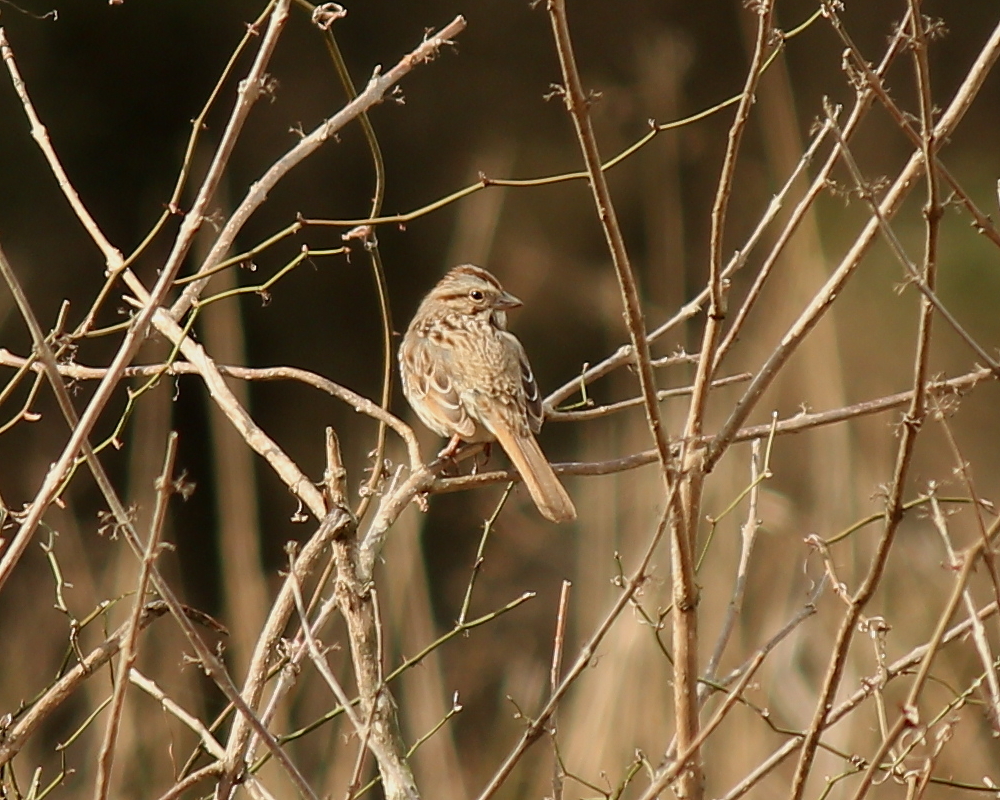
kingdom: Animalia
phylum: Chordata
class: Aves
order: Passeriformes
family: Passerellidae
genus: Melospiza
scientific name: Melospiza melodia
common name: Song sparrow
